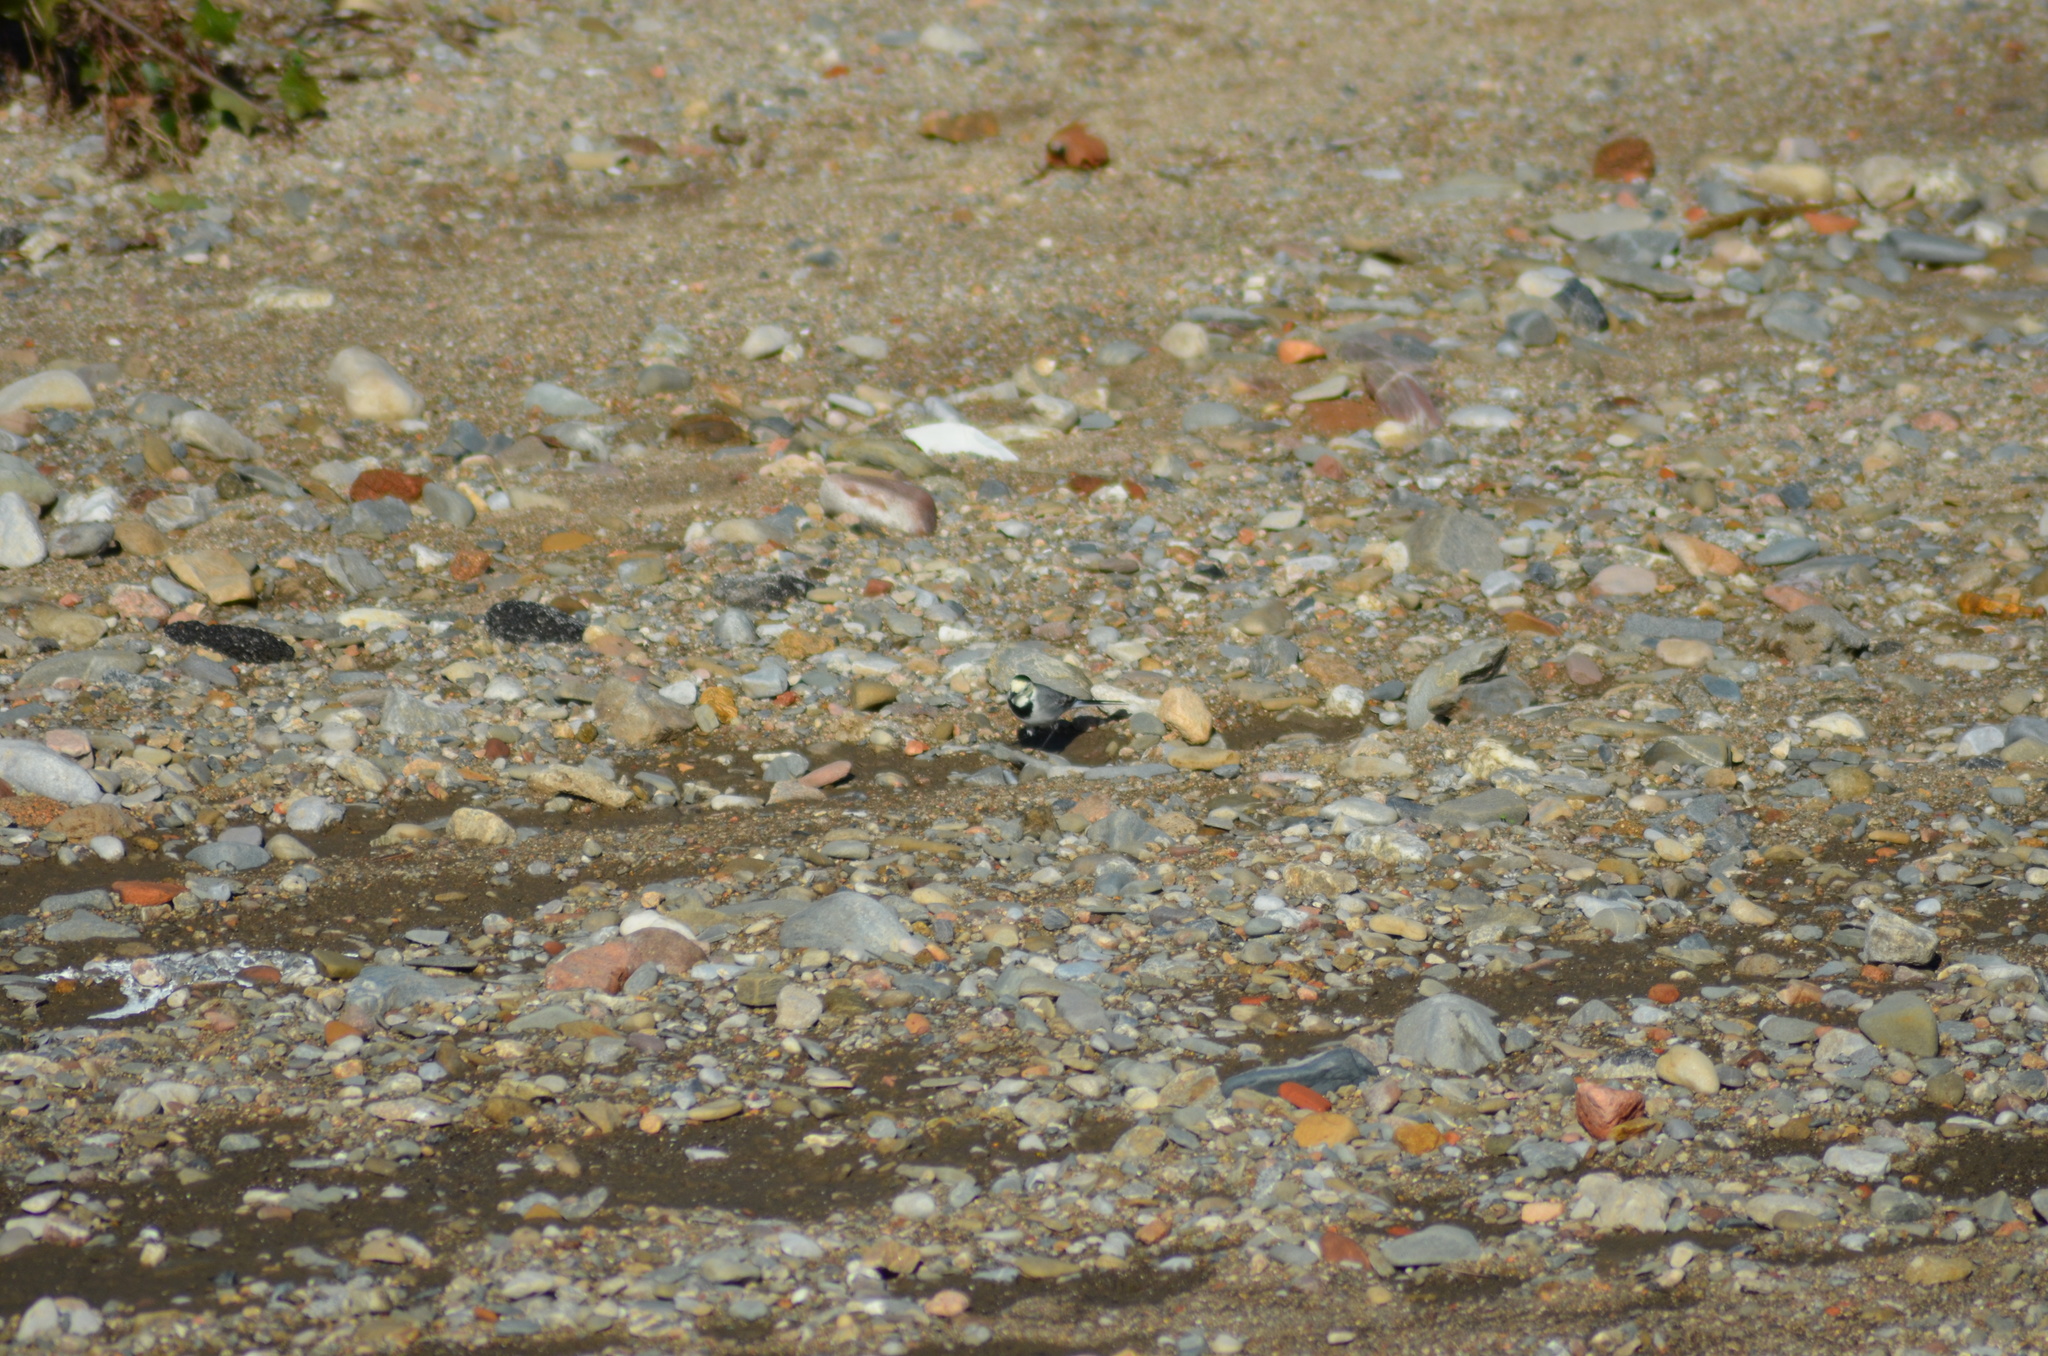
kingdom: Animalia
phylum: Chordata
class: Aves
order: Passeriformes
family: Motacillidae
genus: Motacilla
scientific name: Motacilla alba
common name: White wagtail
